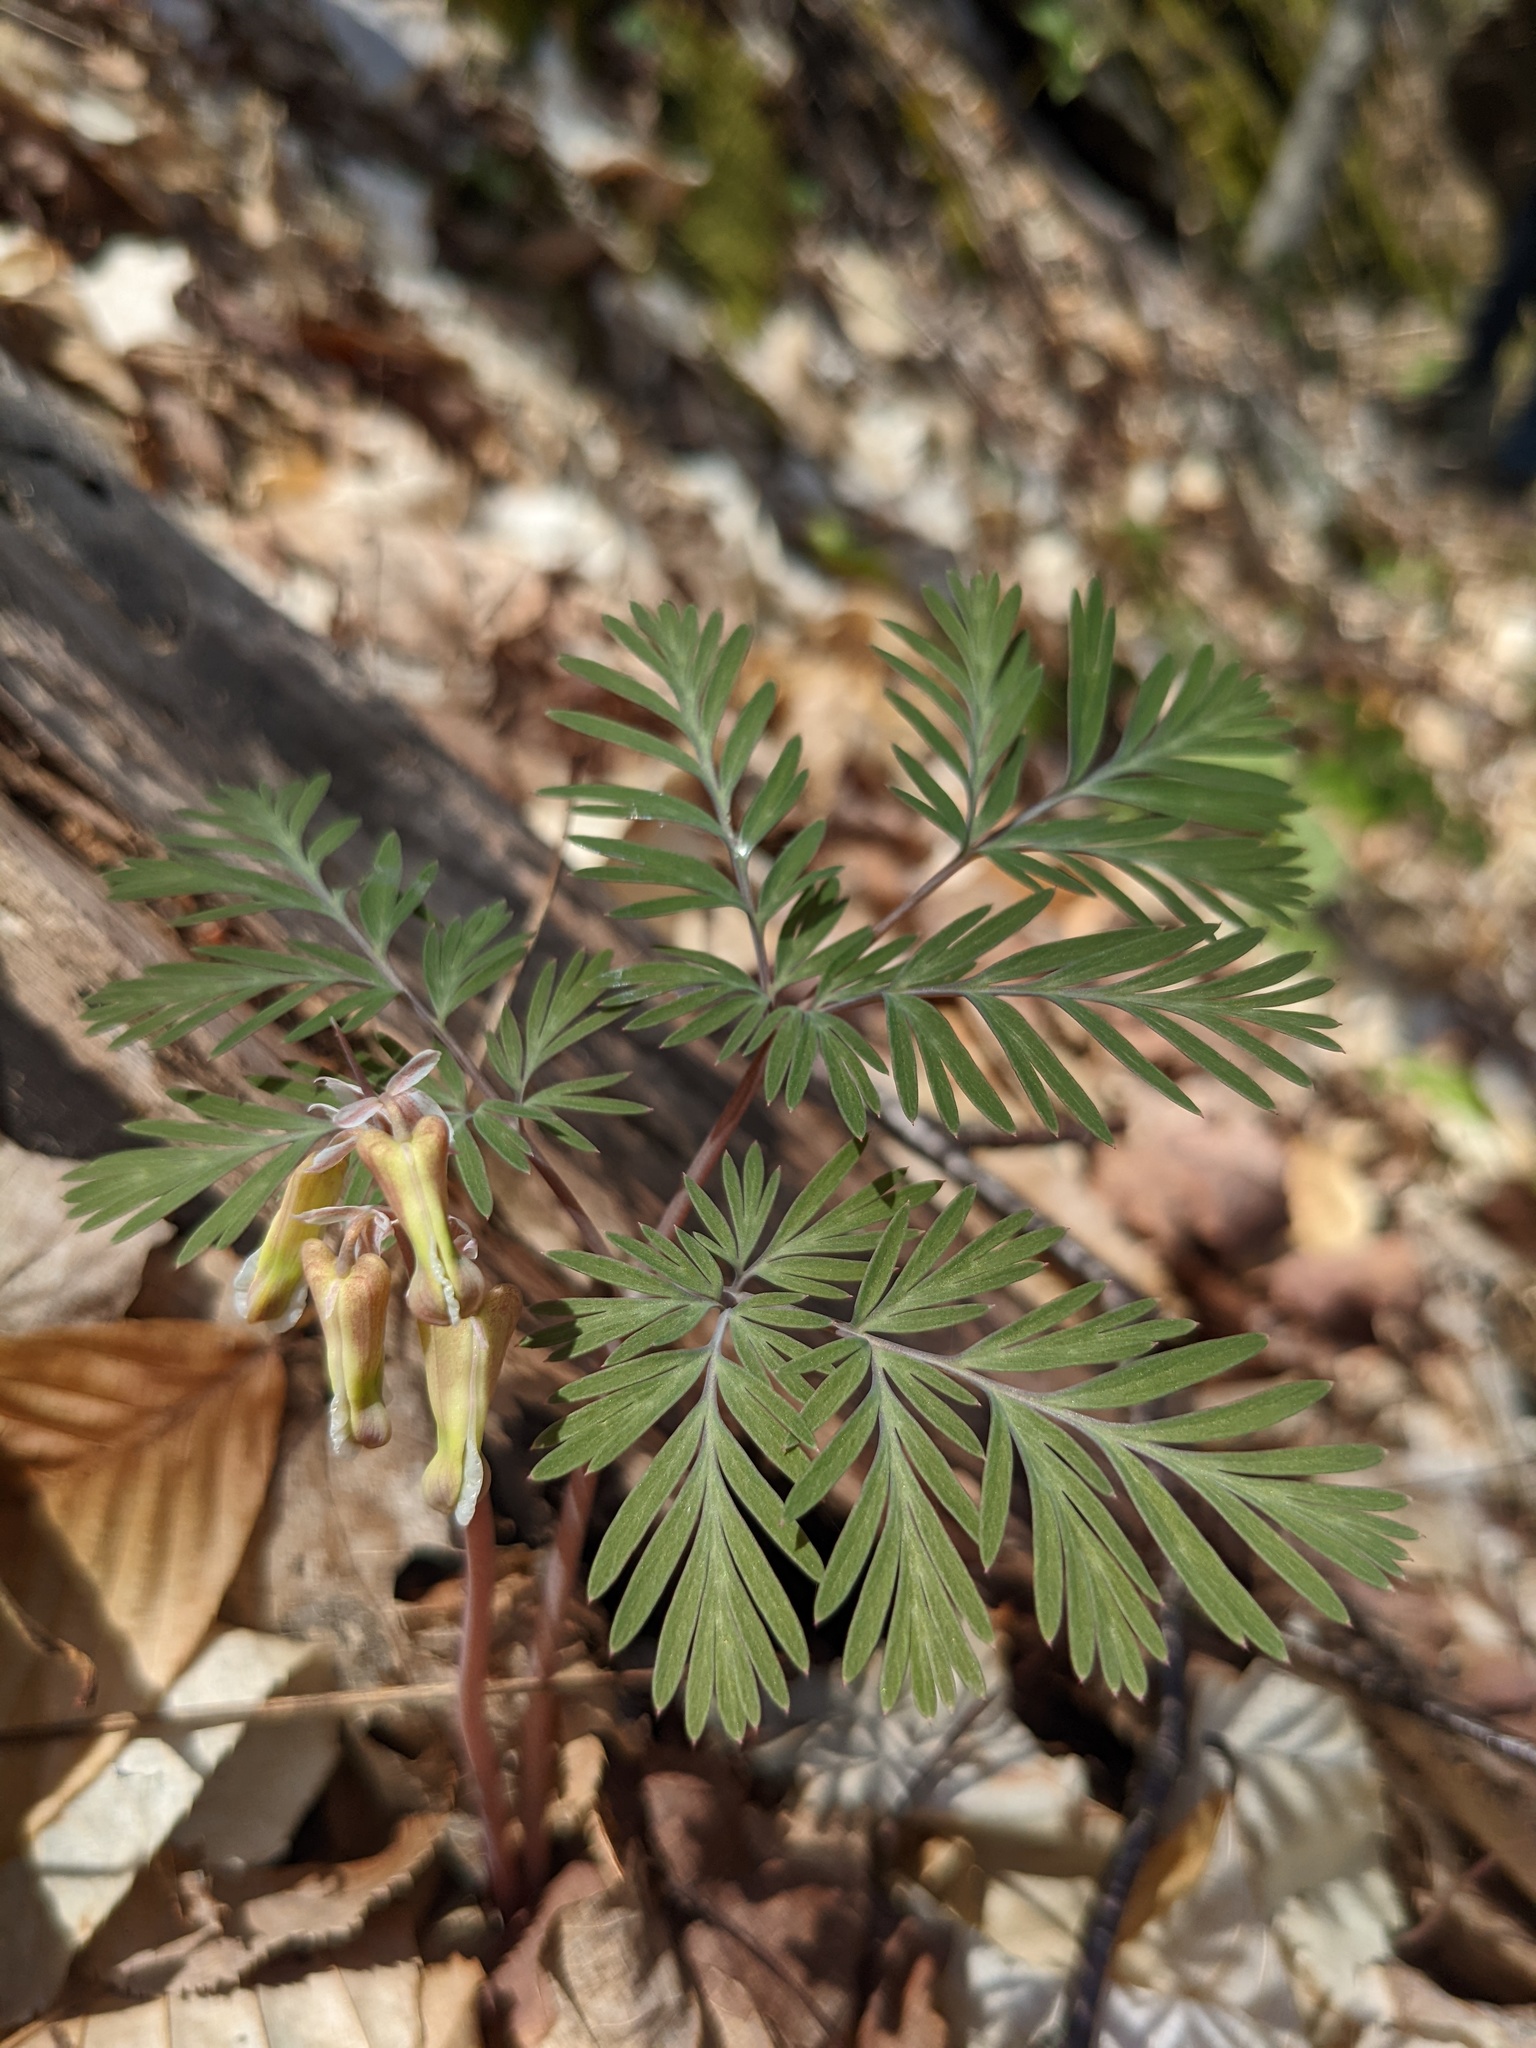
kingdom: Plantae
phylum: Tracheophyta
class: Magnoliopsida
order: Ranunculales
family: Papaveraceae
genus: Dicentra
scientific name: Dicentra canadensis
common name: Squirrel-corn
